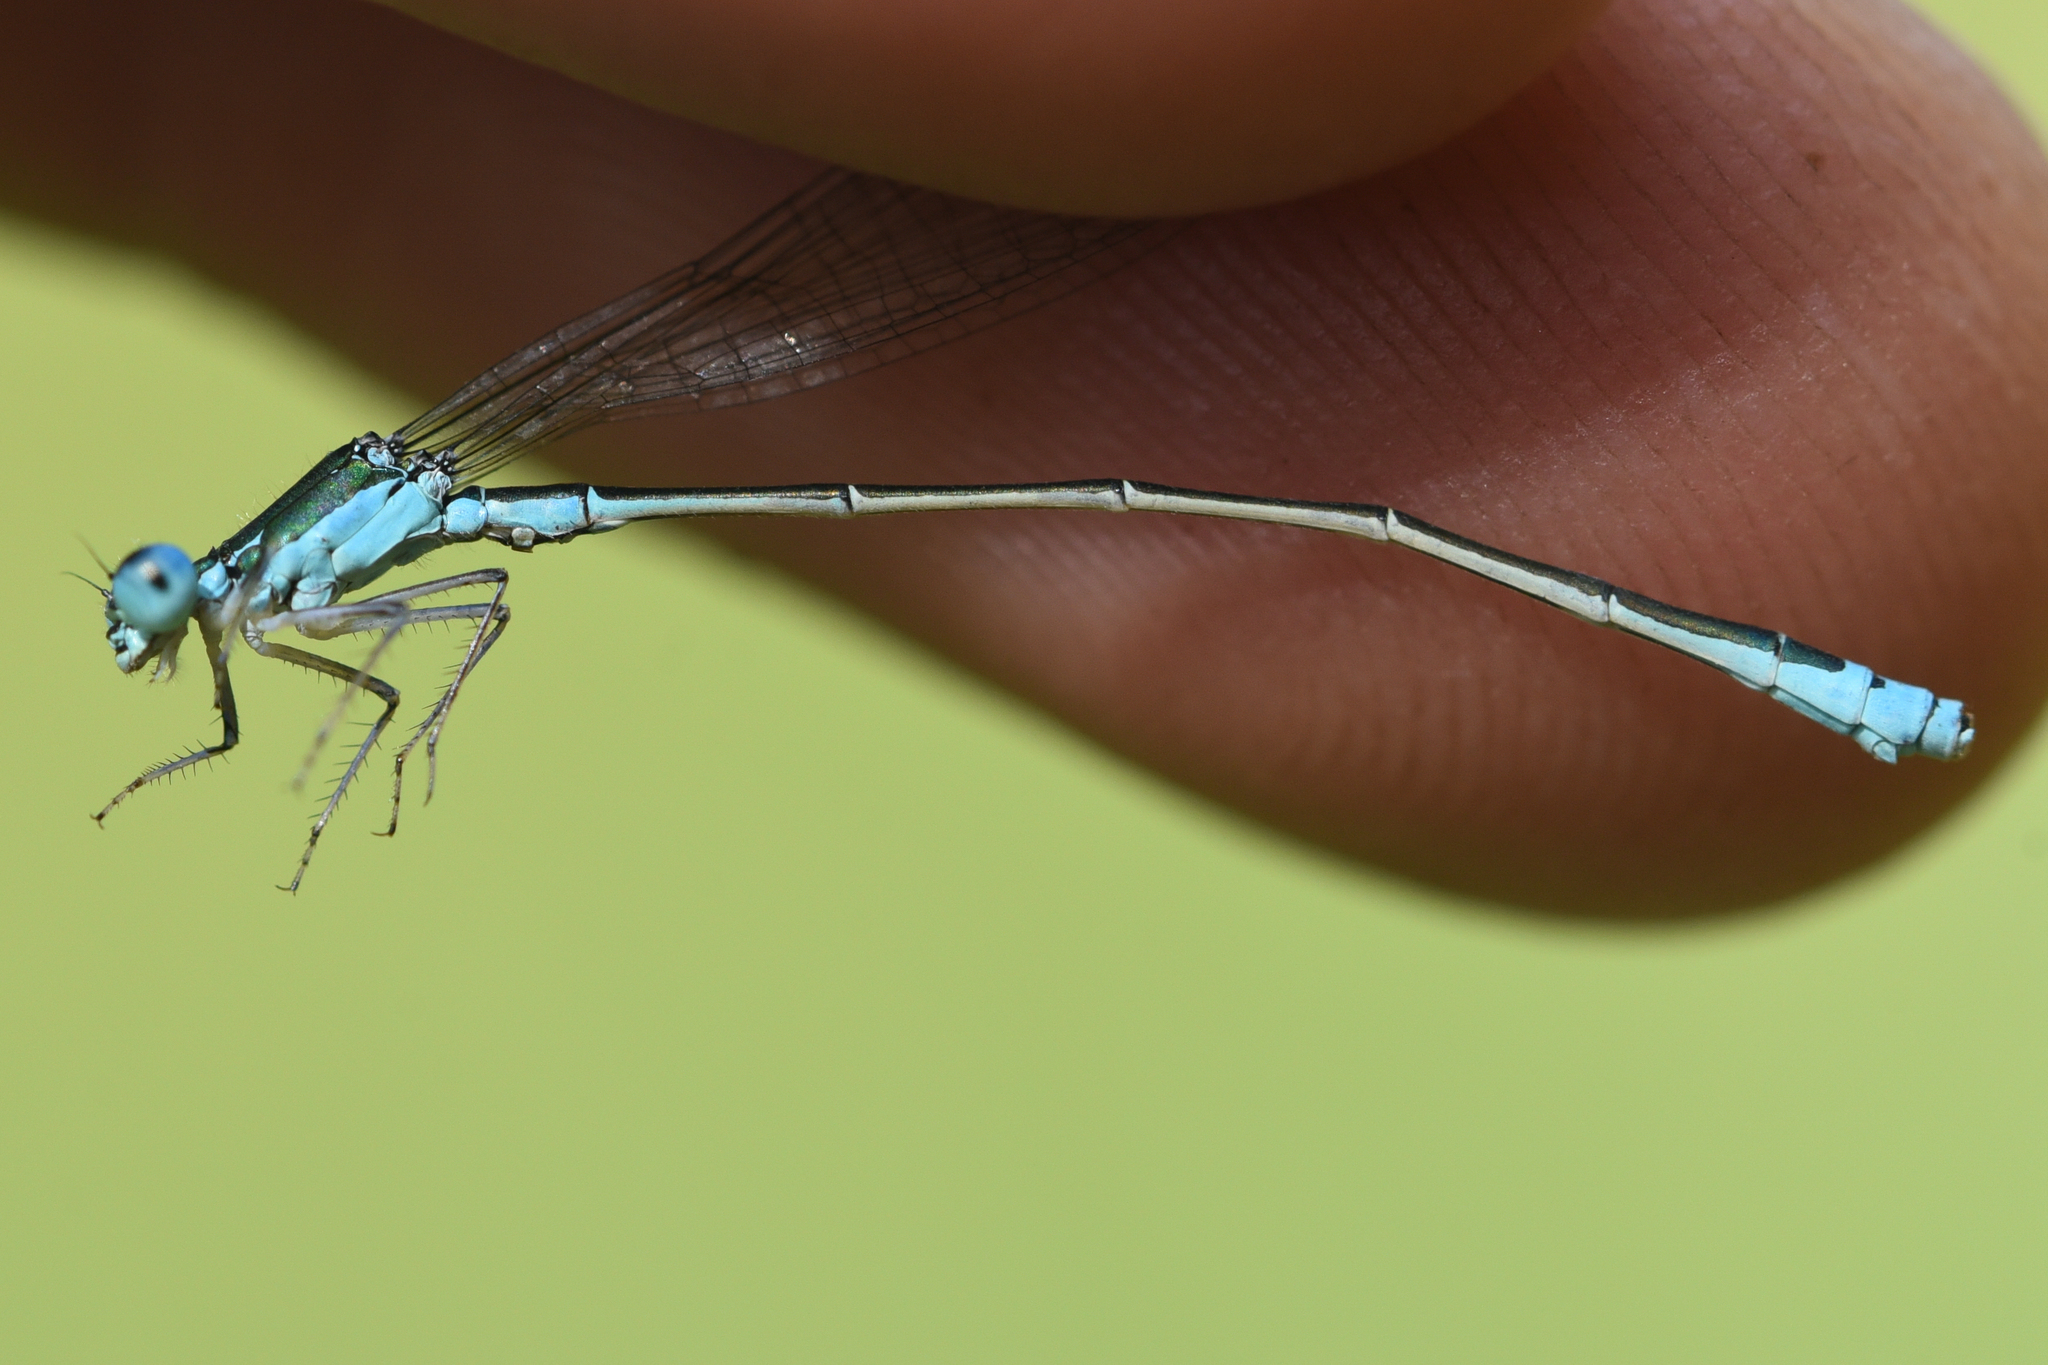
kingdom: Animalia
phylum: Arthropoda
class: Insecta
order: Odonata
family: Coenagrionidae
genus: Nehalennia
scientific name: Nehalennia irene
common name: Sedge sprite
